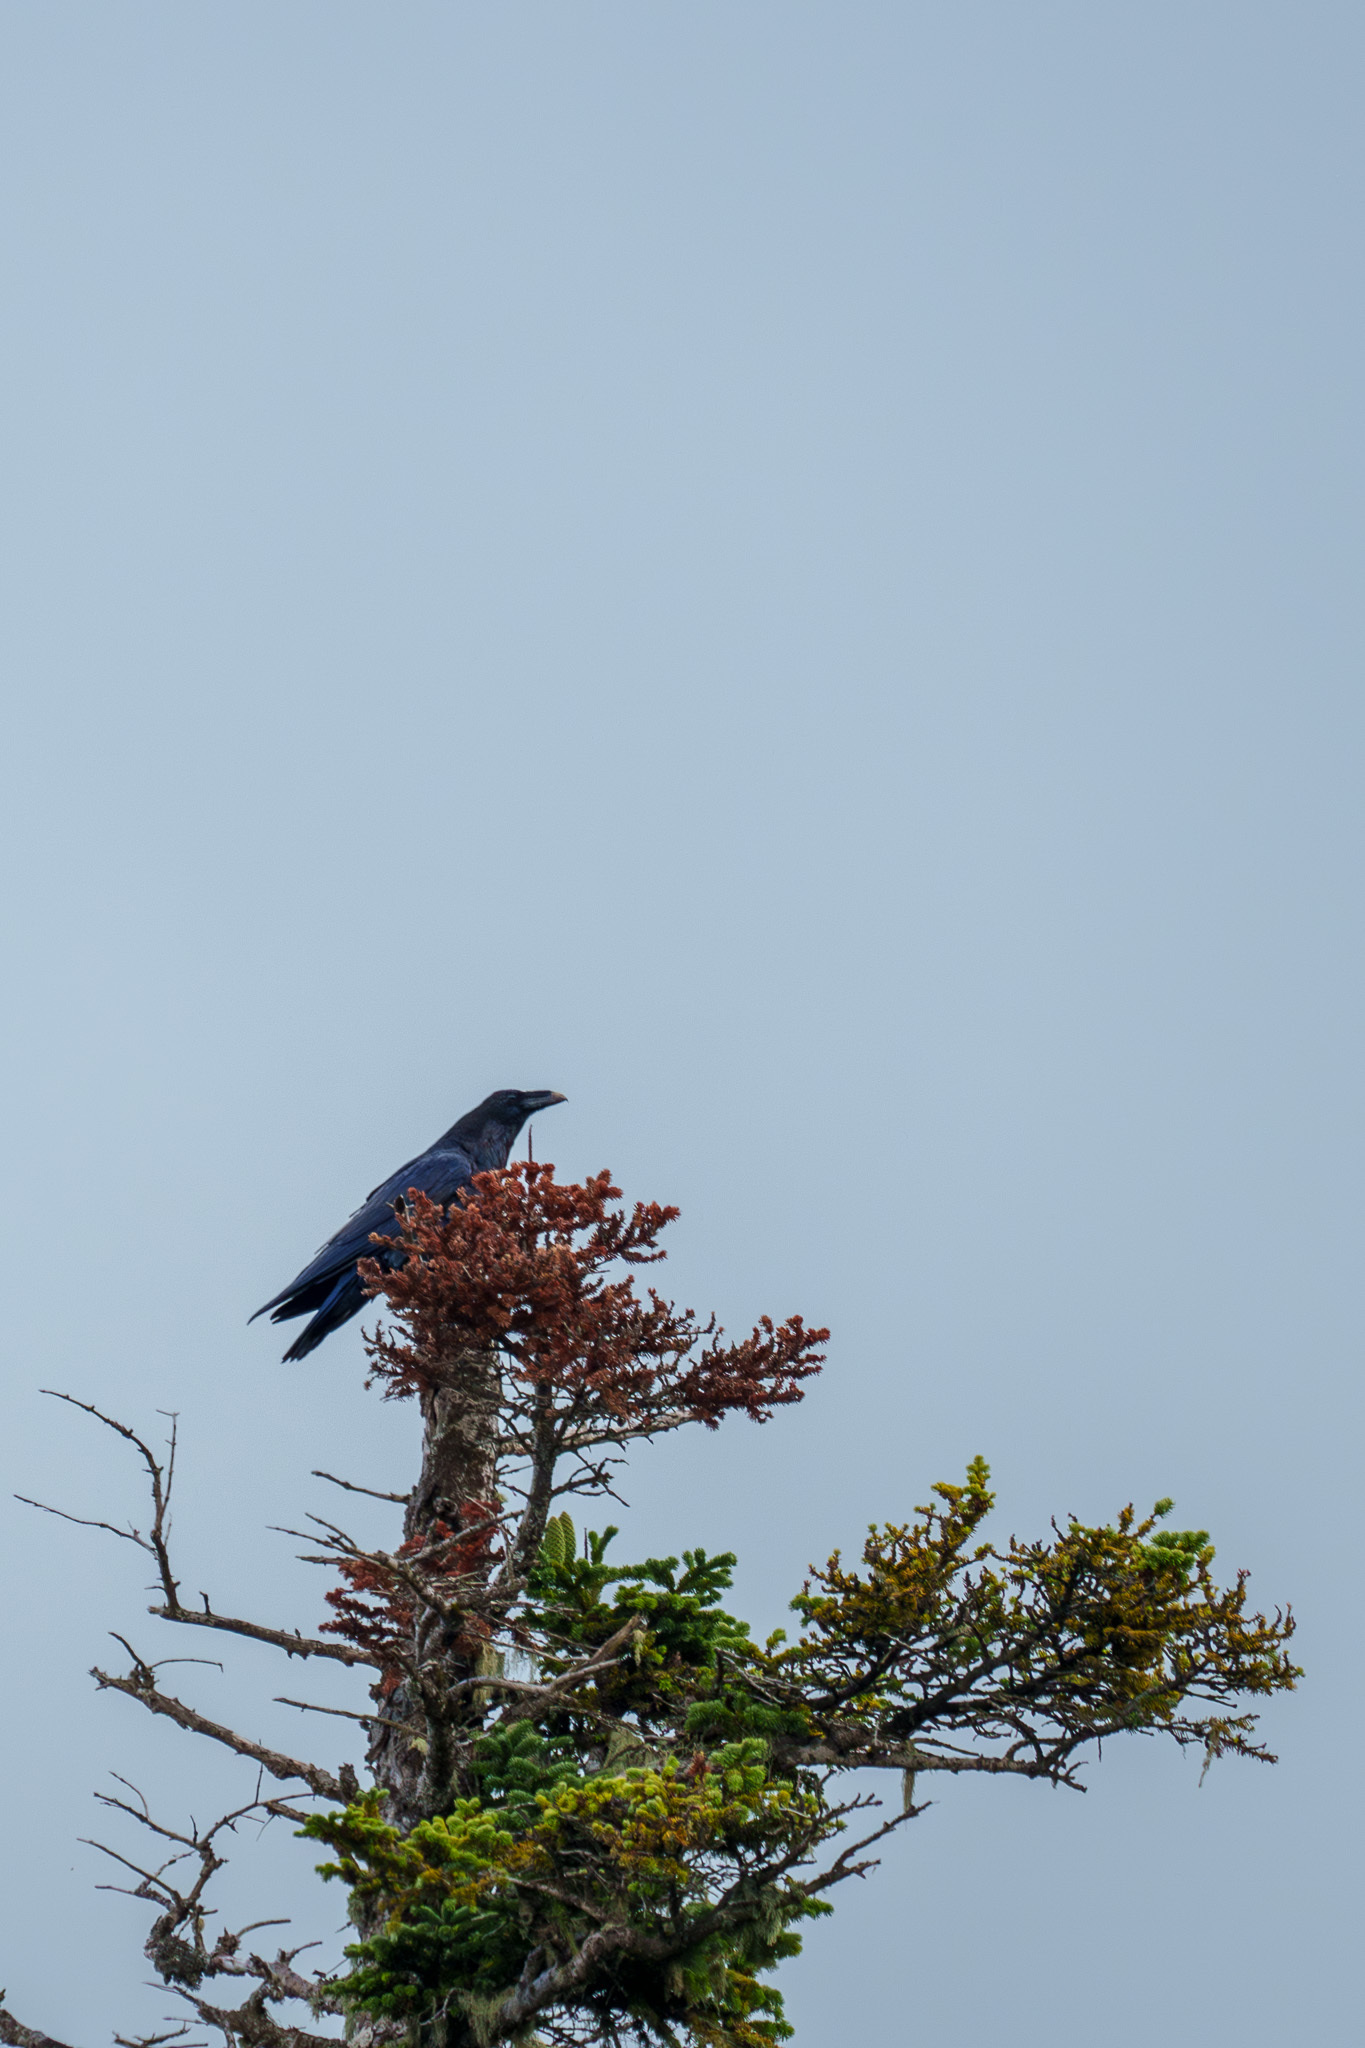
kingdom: Animalia
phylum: Chordata
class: Aves
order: Passeriformes
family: Corvidae
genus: Corvus
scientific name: Corvus corax
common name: Common raven
